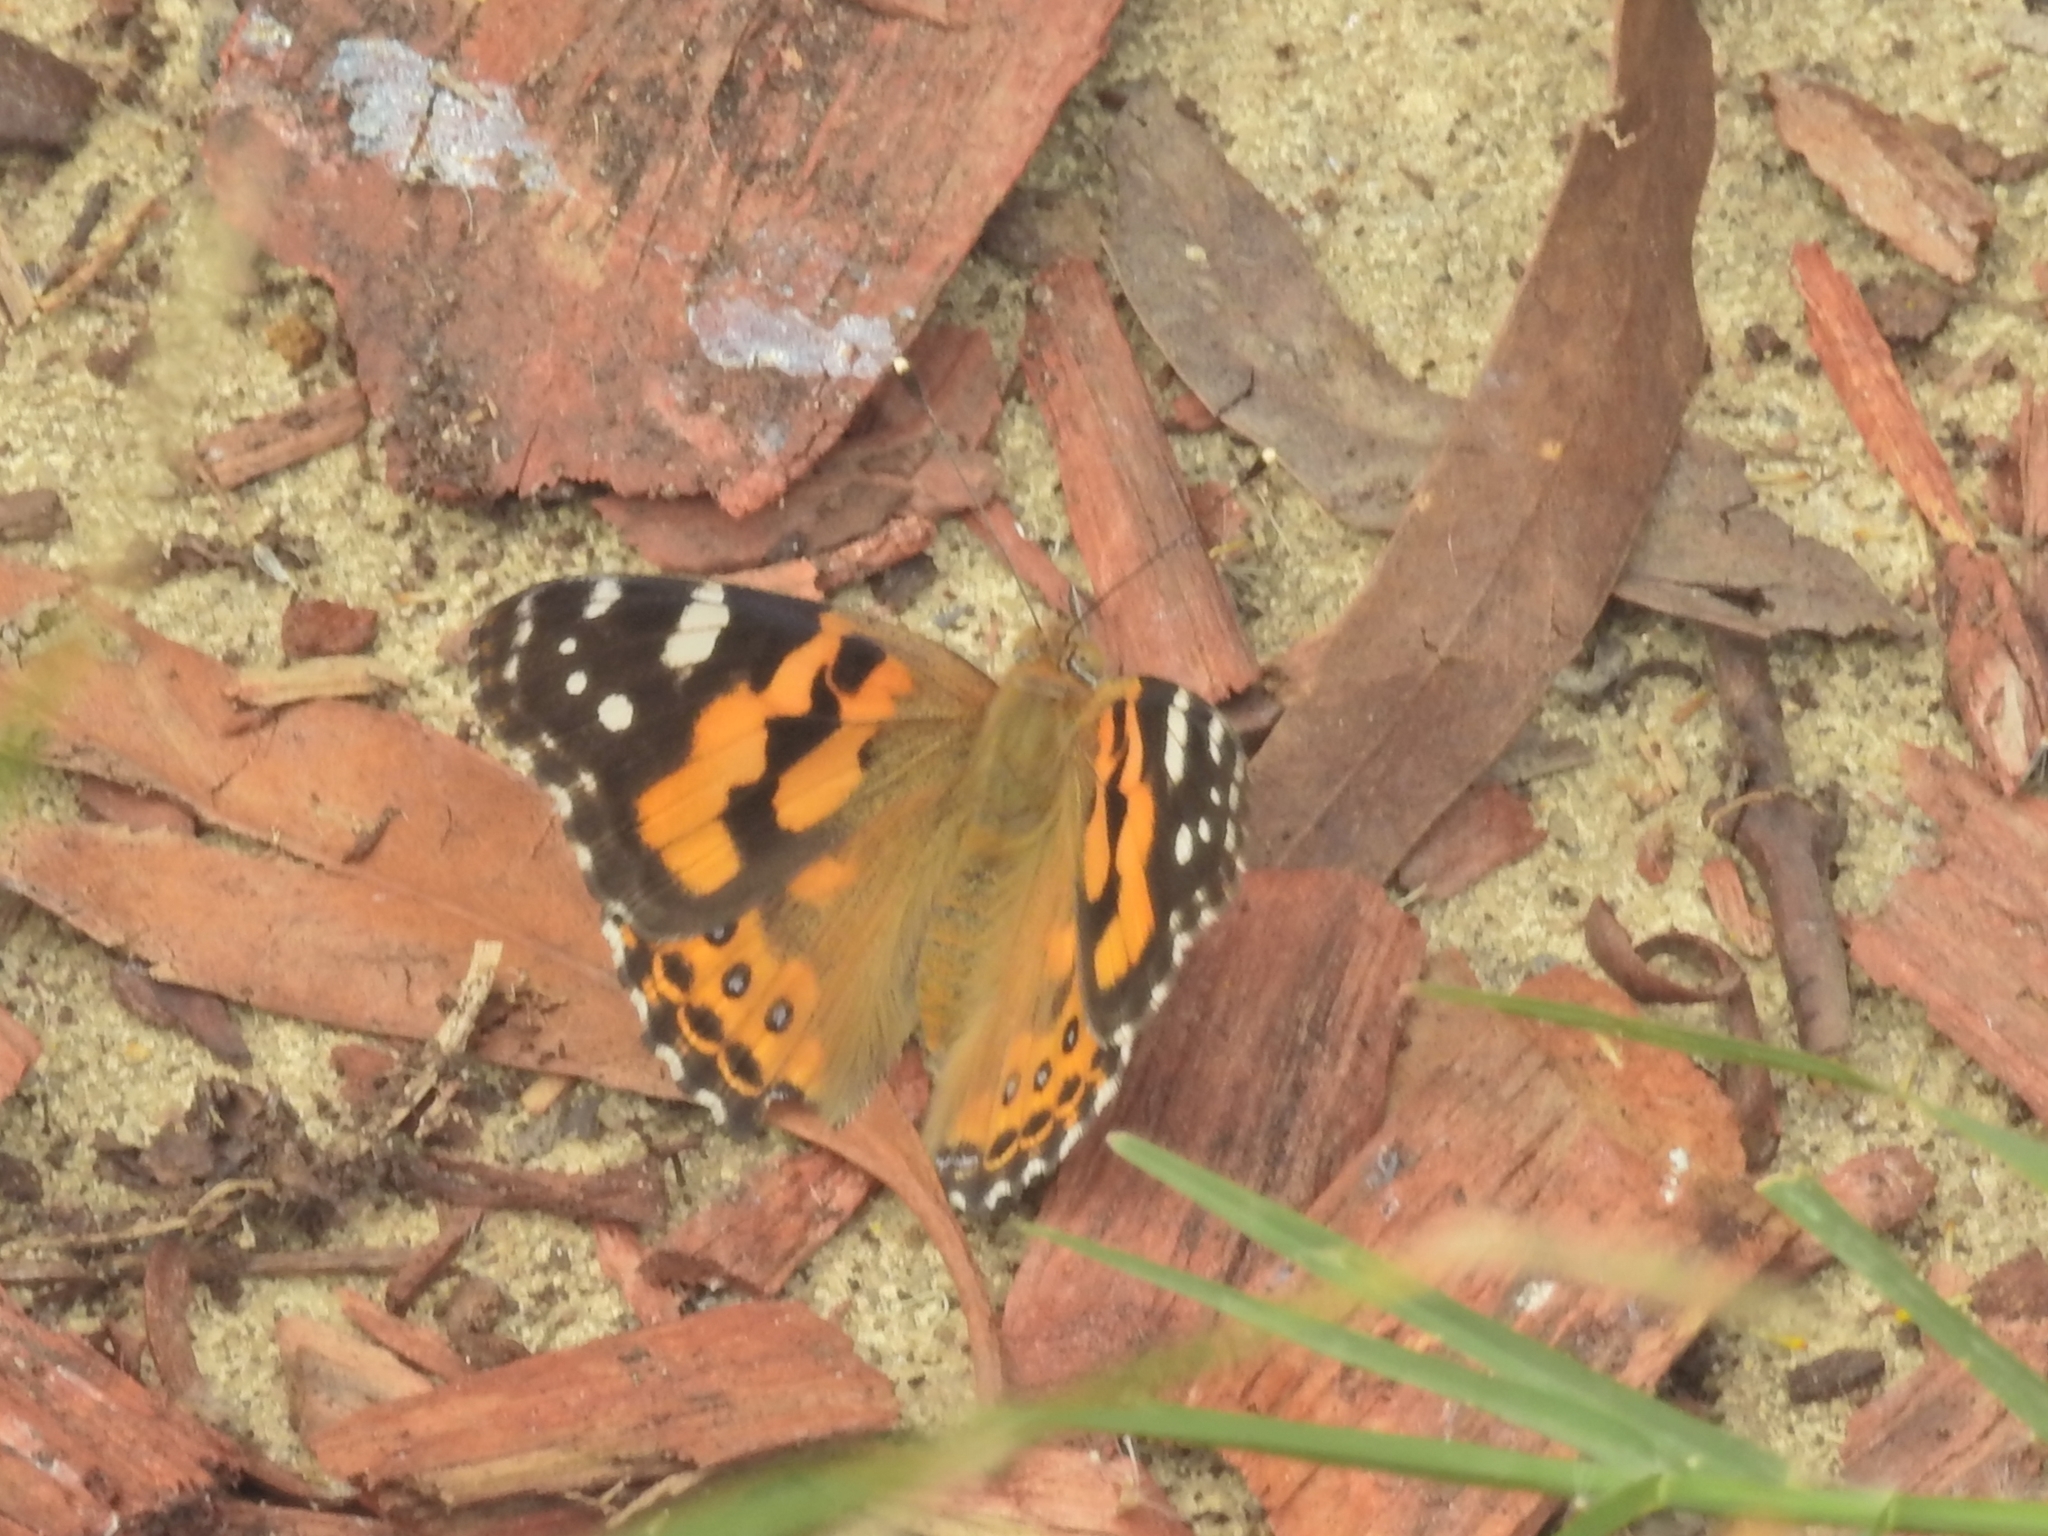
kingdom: Animalia
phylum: Arthropoda
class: Insecta
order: Lepidoptera
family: Nymphalidae
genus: Vanessa
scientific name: Vanessa kershawi
